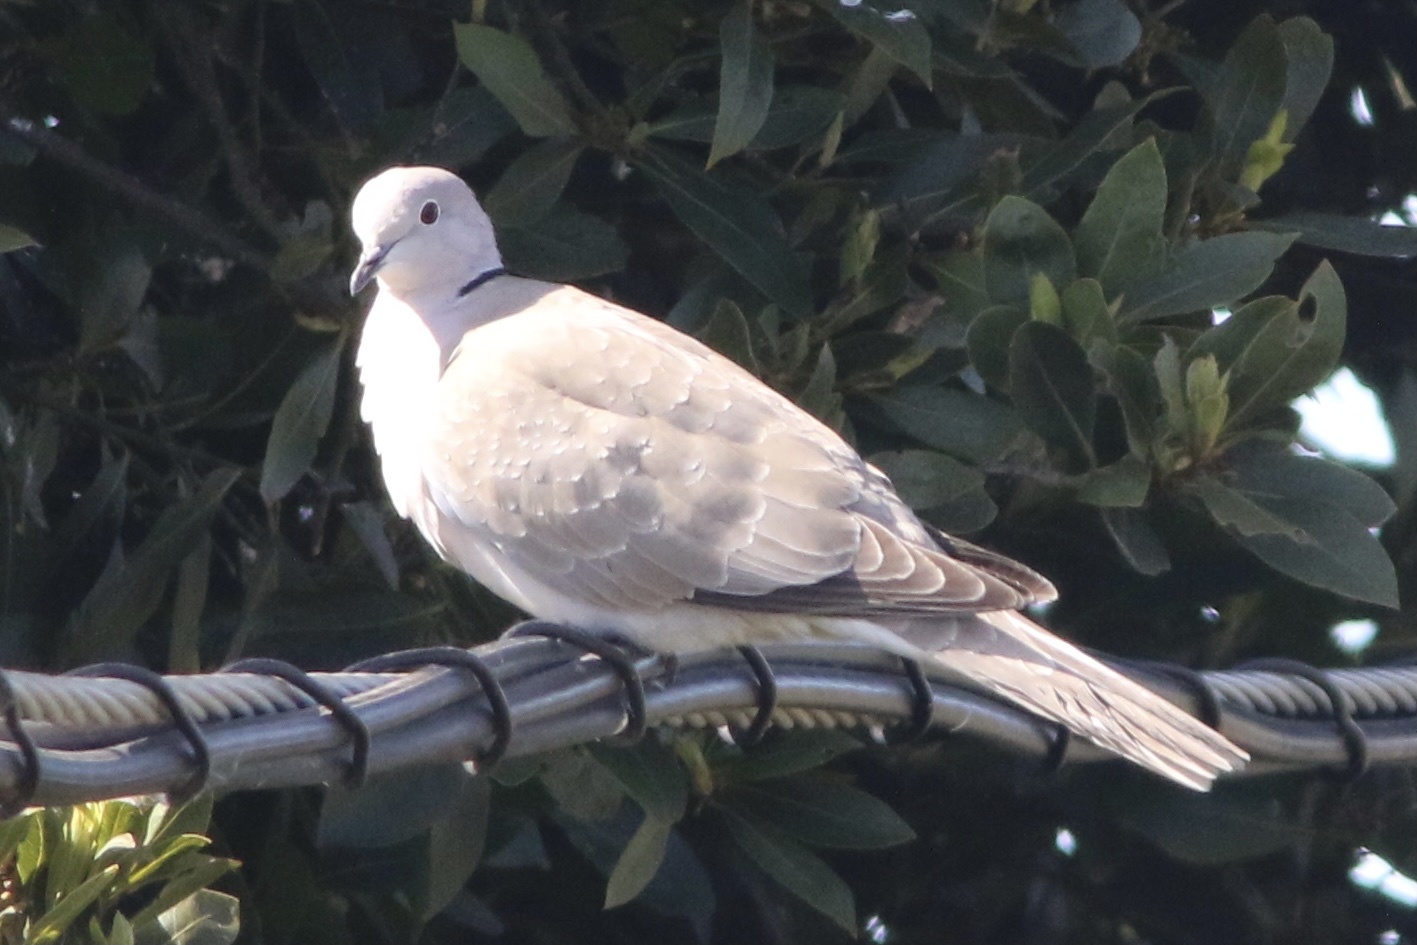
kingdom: Animalia
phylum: Chordata
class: Aves
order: Columbiformes
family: Columbidae
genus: Streptopelia
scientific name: Streptopelia decaocto
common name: Eurasian collared dove
